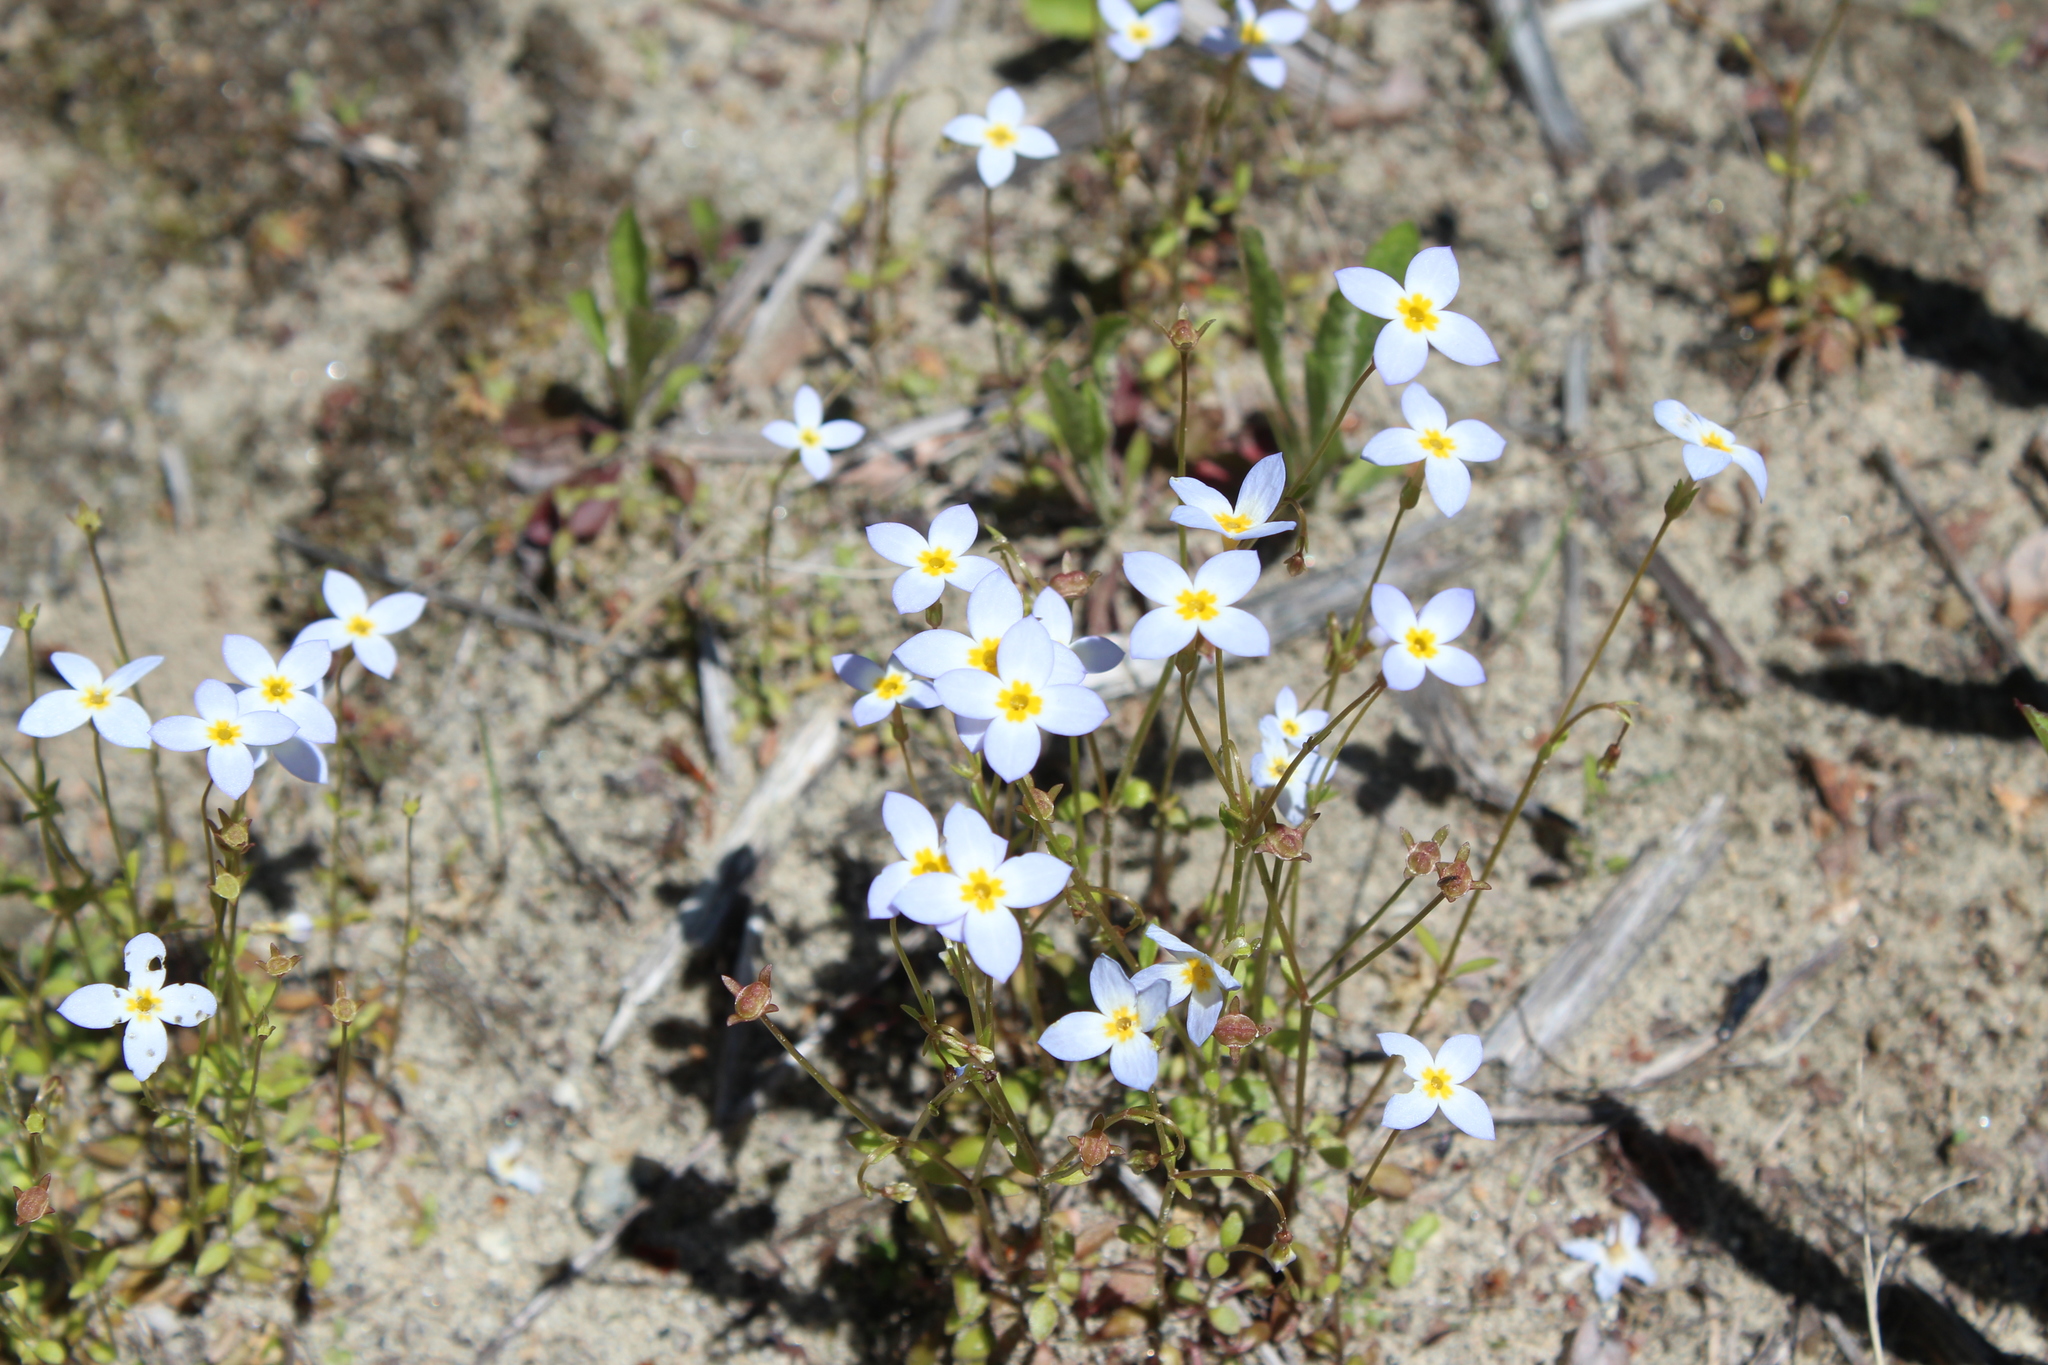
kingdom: Plantae
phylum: Tracheophyta
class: Magnoliopsida
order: Gentianales
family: Rubiaceae
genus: Houstonia
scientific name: Houstonia caerulea
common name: Bluets
